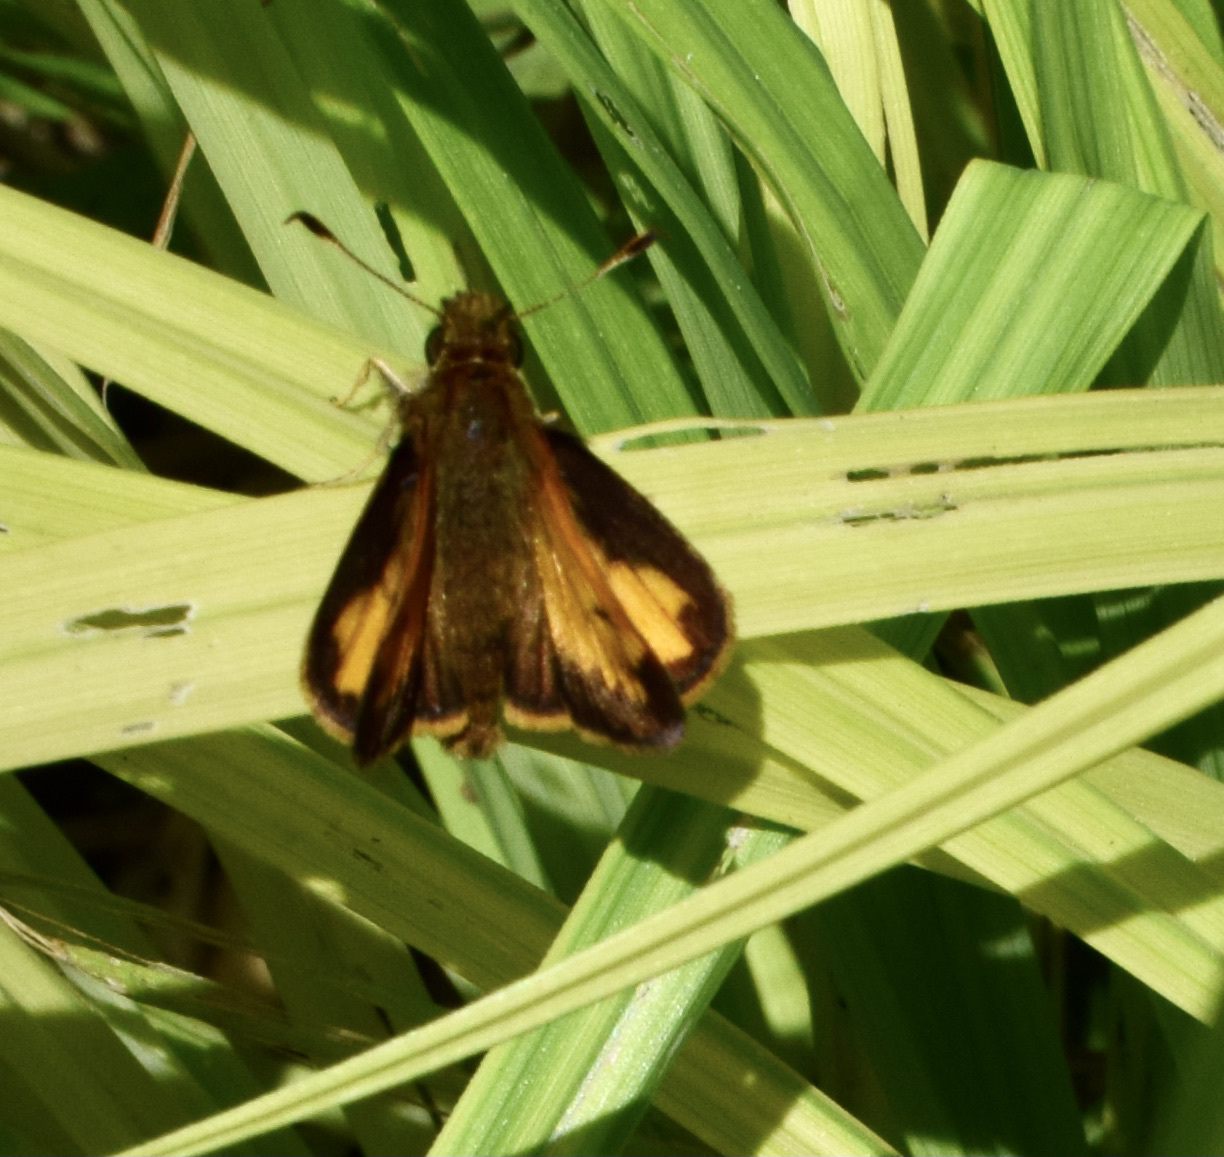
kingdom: Animalia
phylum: Arthropoda
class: Insecta
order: Lepidoptera
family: Hesperiidae
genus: Lon
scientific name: Lon hobomok
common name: Hobomok skipper
